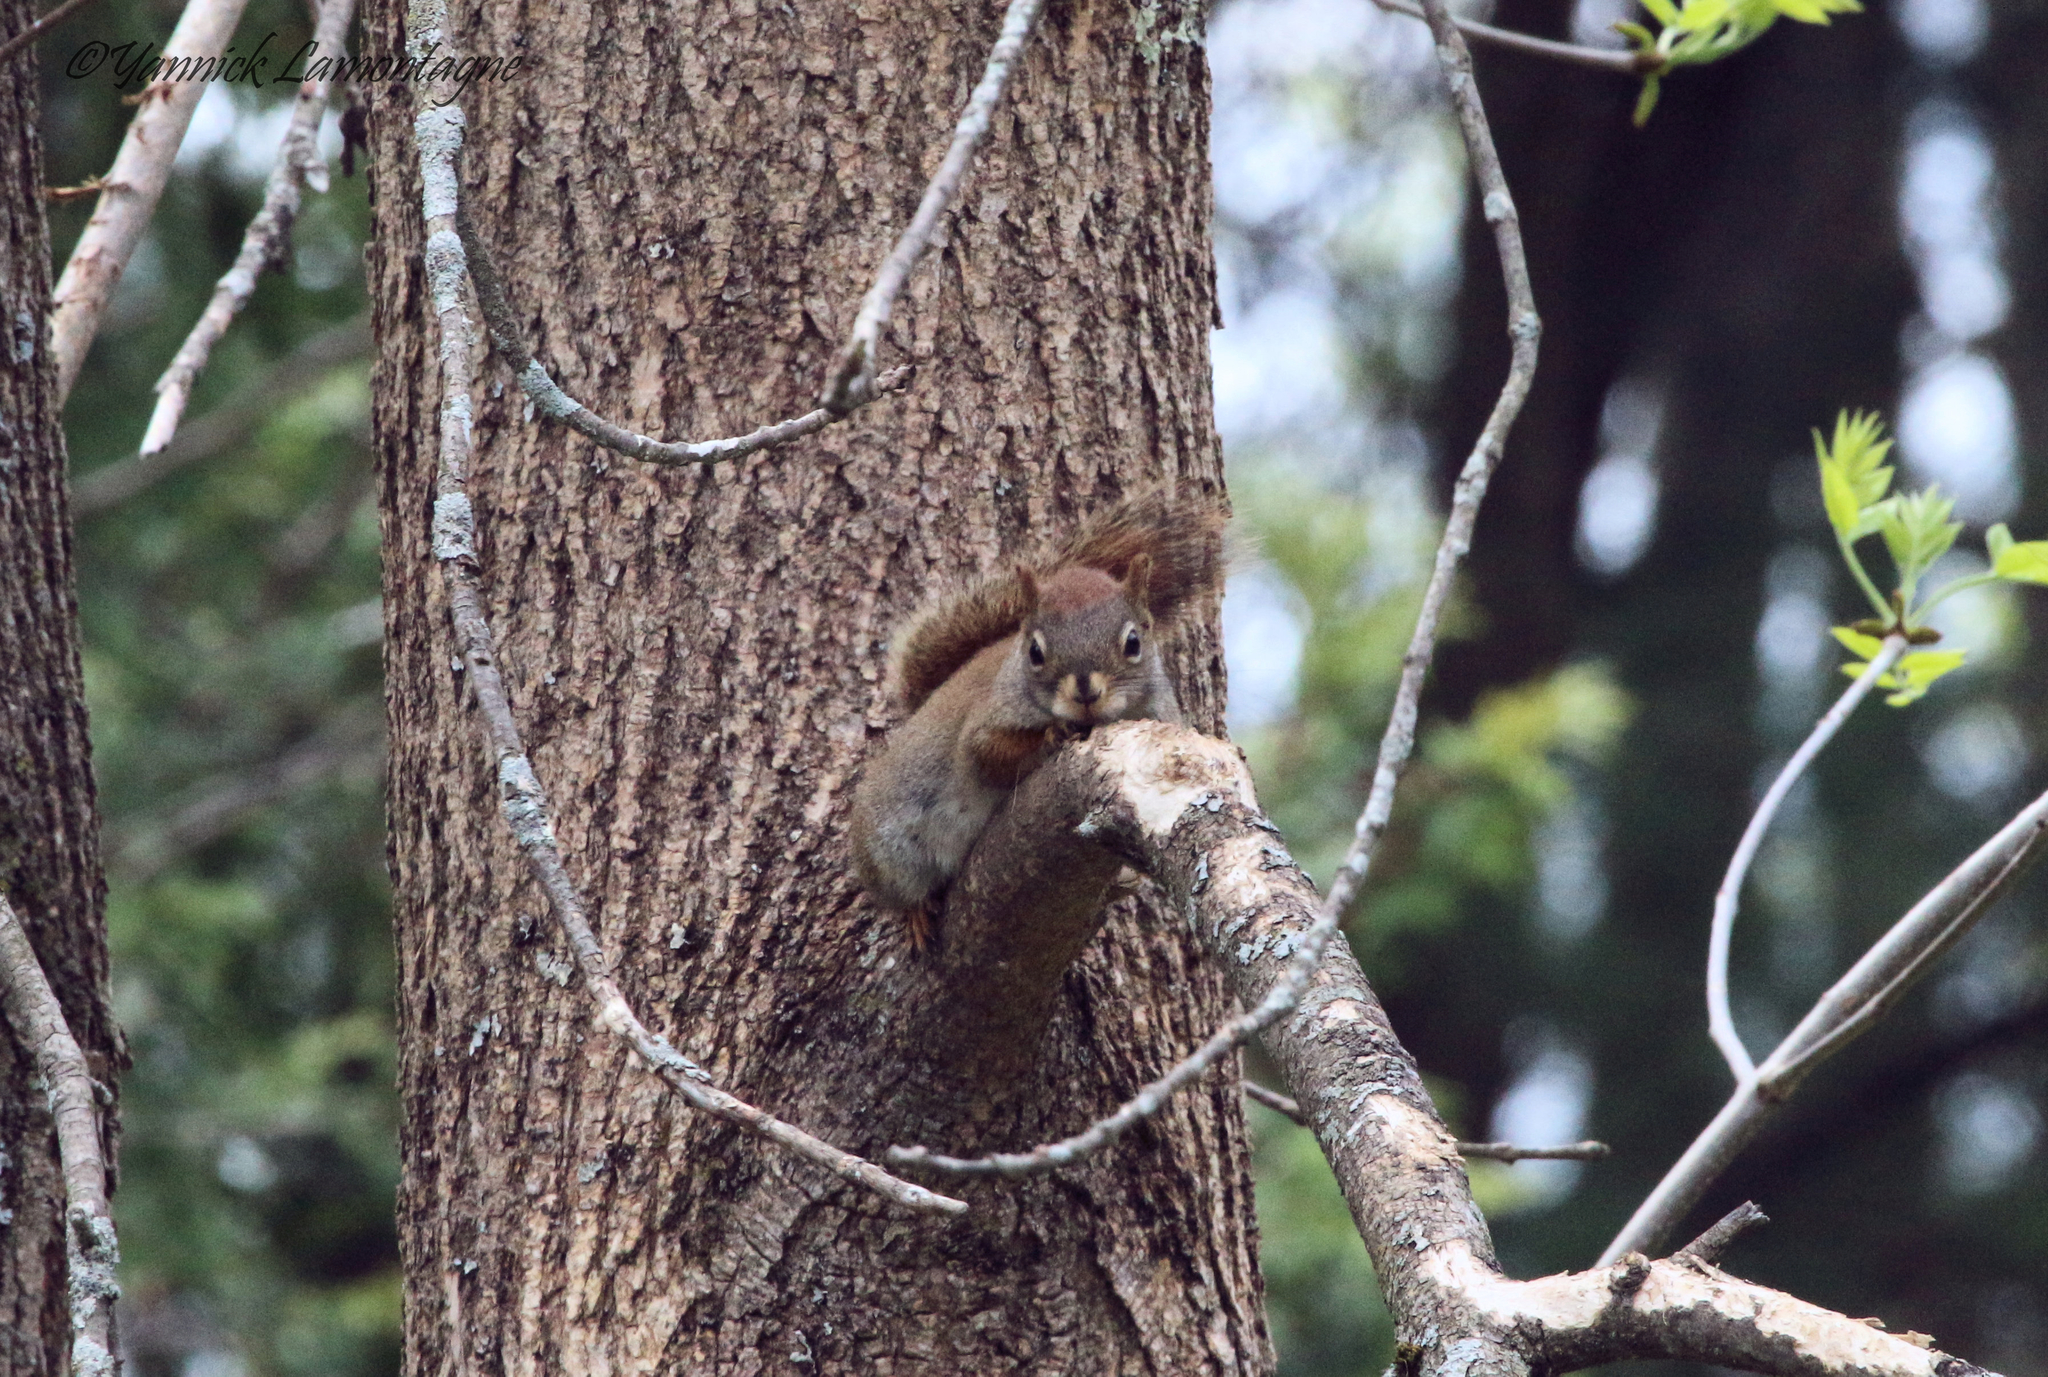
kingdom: Animalia
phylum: Chordata
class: Mammalia
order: Rodentia
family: Sciuridae
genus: Tamiasciurus
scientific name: Tamiasciurus hudsonicus
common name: Red squirrel
